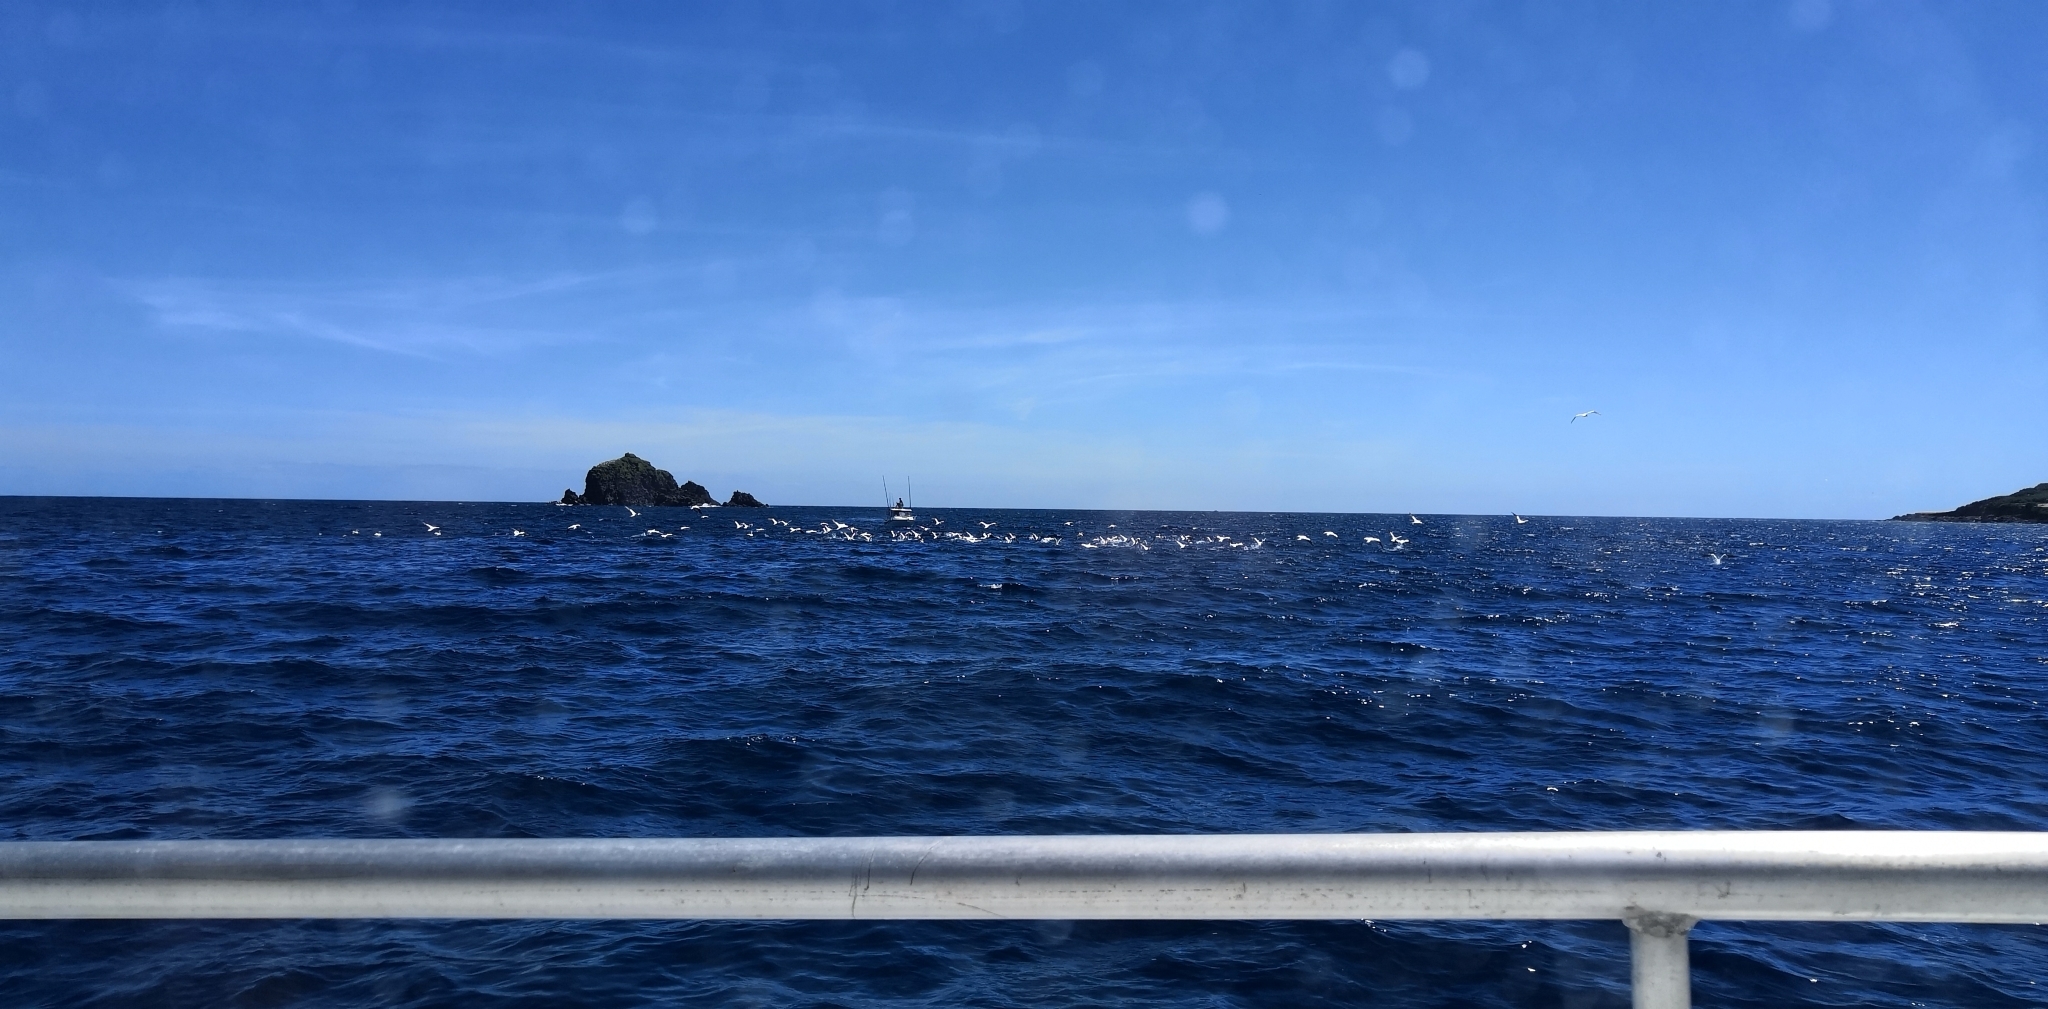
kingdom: Animalia
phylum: Chordata
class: Aves
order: Suliformes
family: Sulidae
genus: Morus
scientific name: Morus serrator
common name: Australasian gannet
